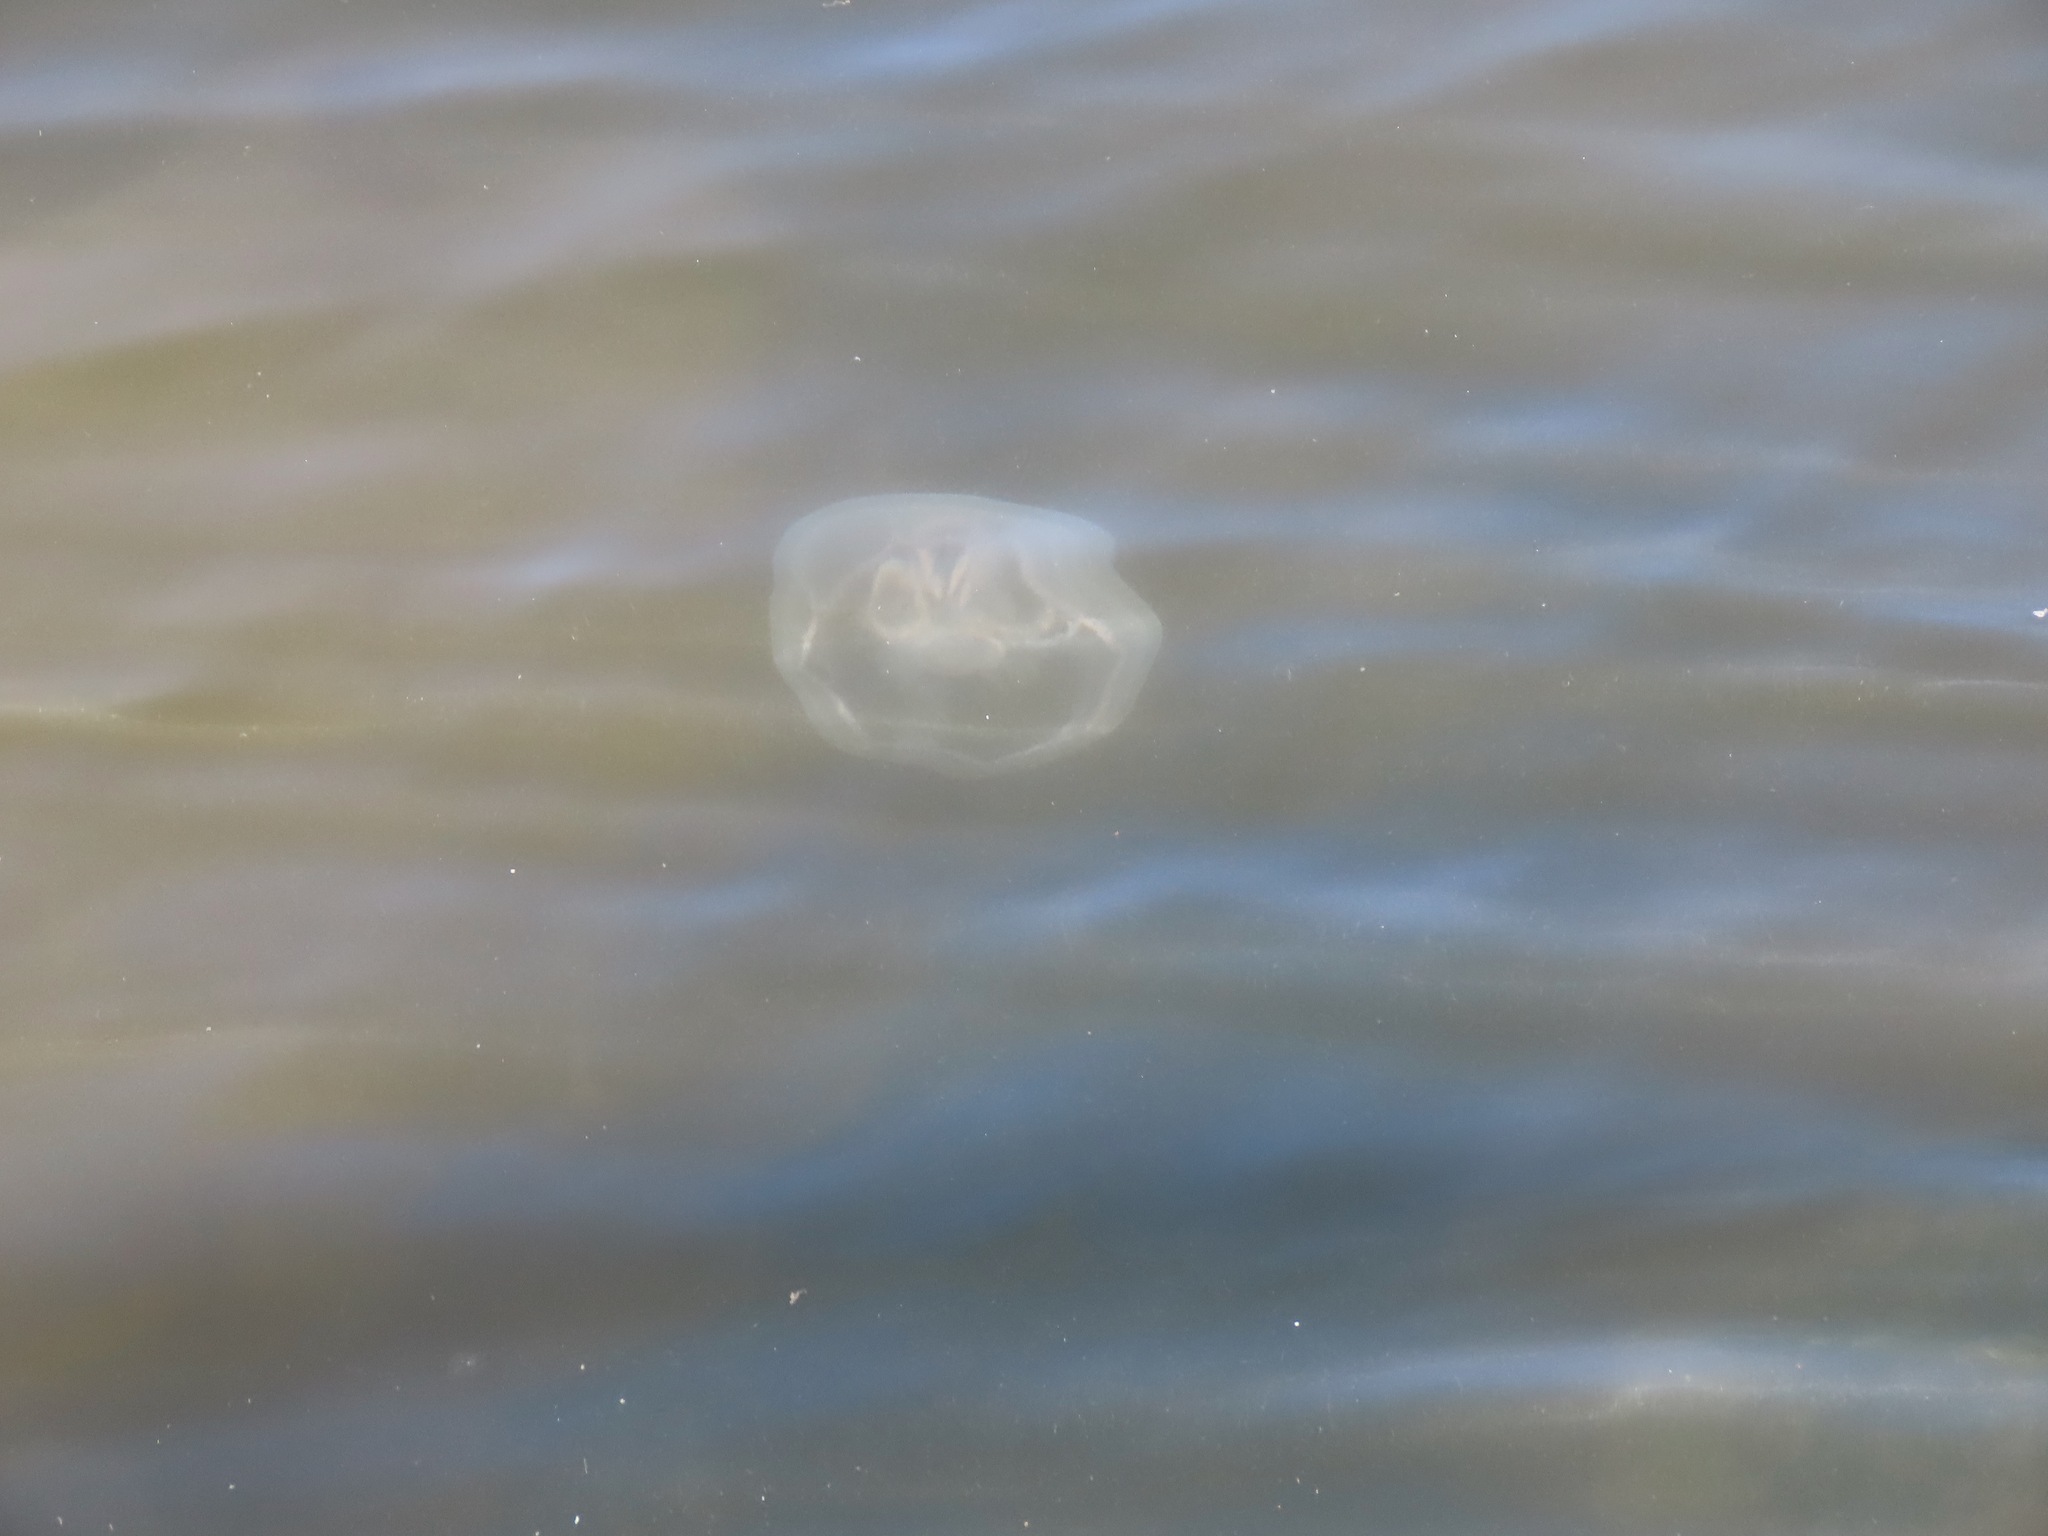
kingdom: Animalia
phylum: Cnidaria
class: Scyphozoa
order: Semaeostomeae
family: Ulmaridae
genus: Aurelia
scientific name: Aurelia coerulea
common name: Moon jellyfish
